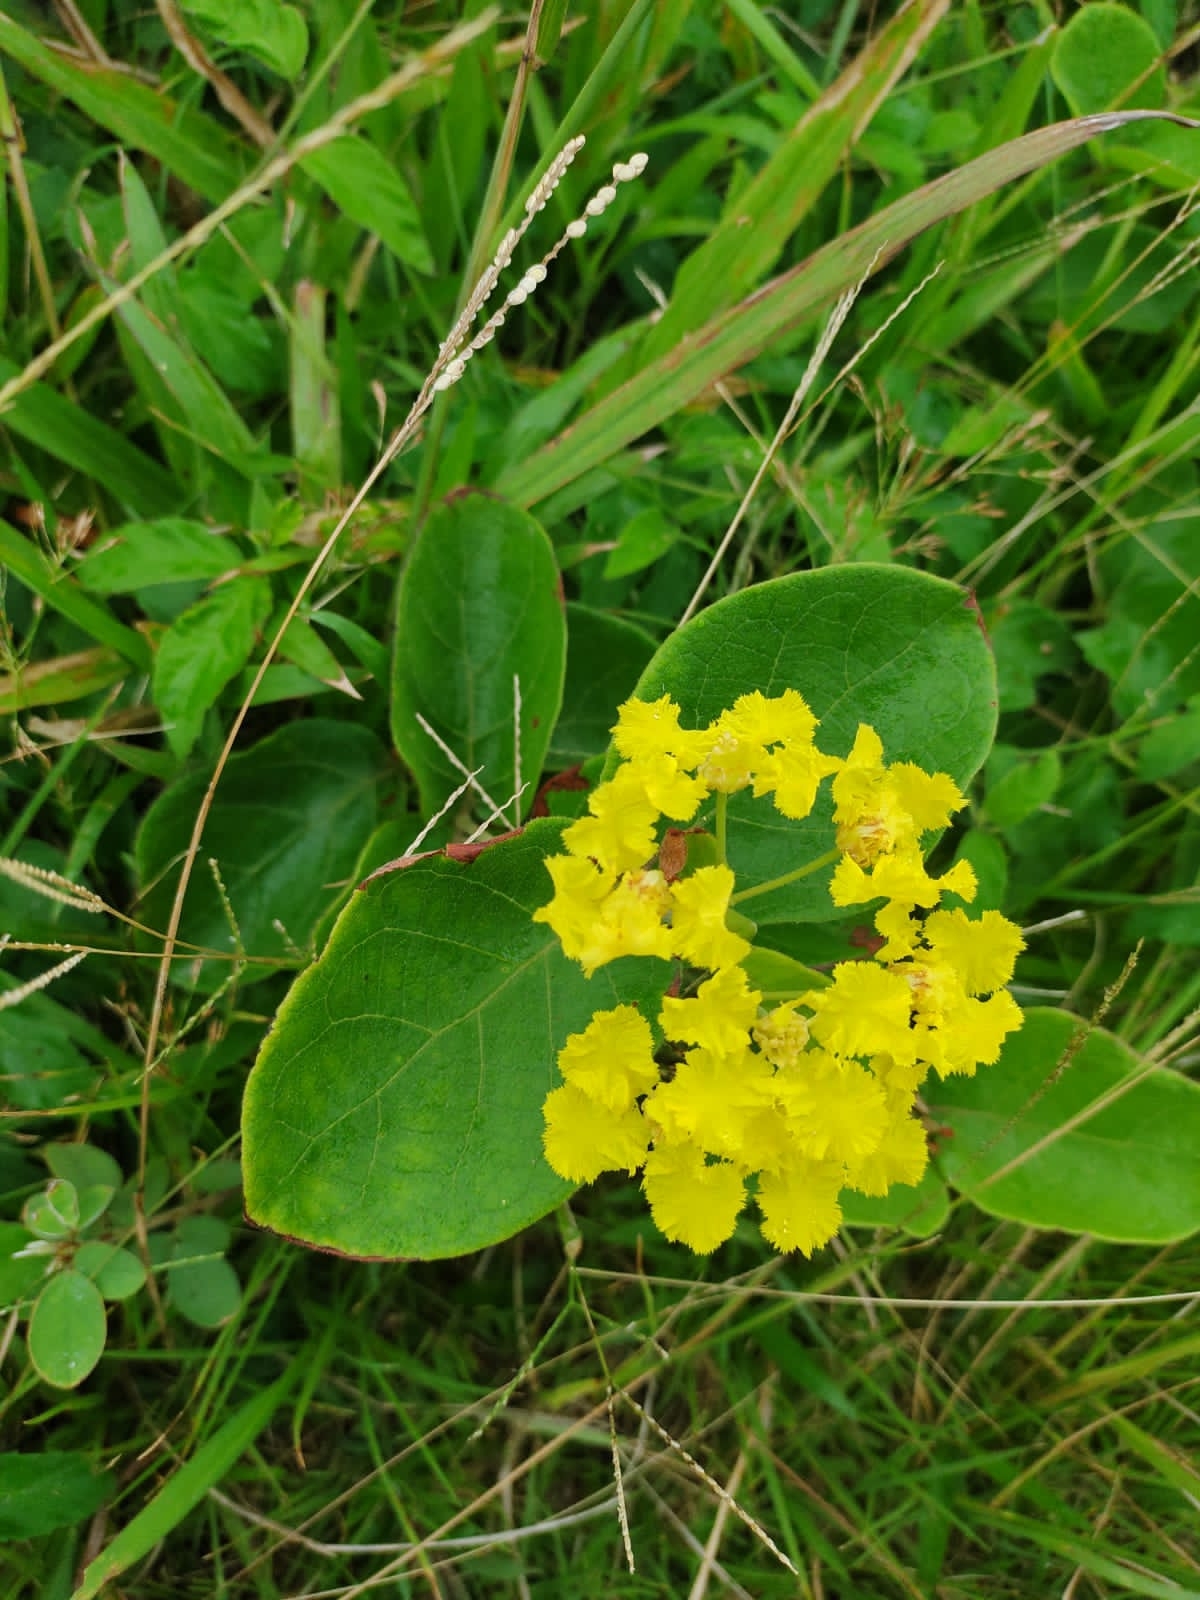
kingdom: Plantae
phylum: Tracheophyta
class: Magnoliopsida
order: Malpighiales
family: Malpighiaceae
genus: Peixotoa
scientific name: Peixotoa catarinensis
